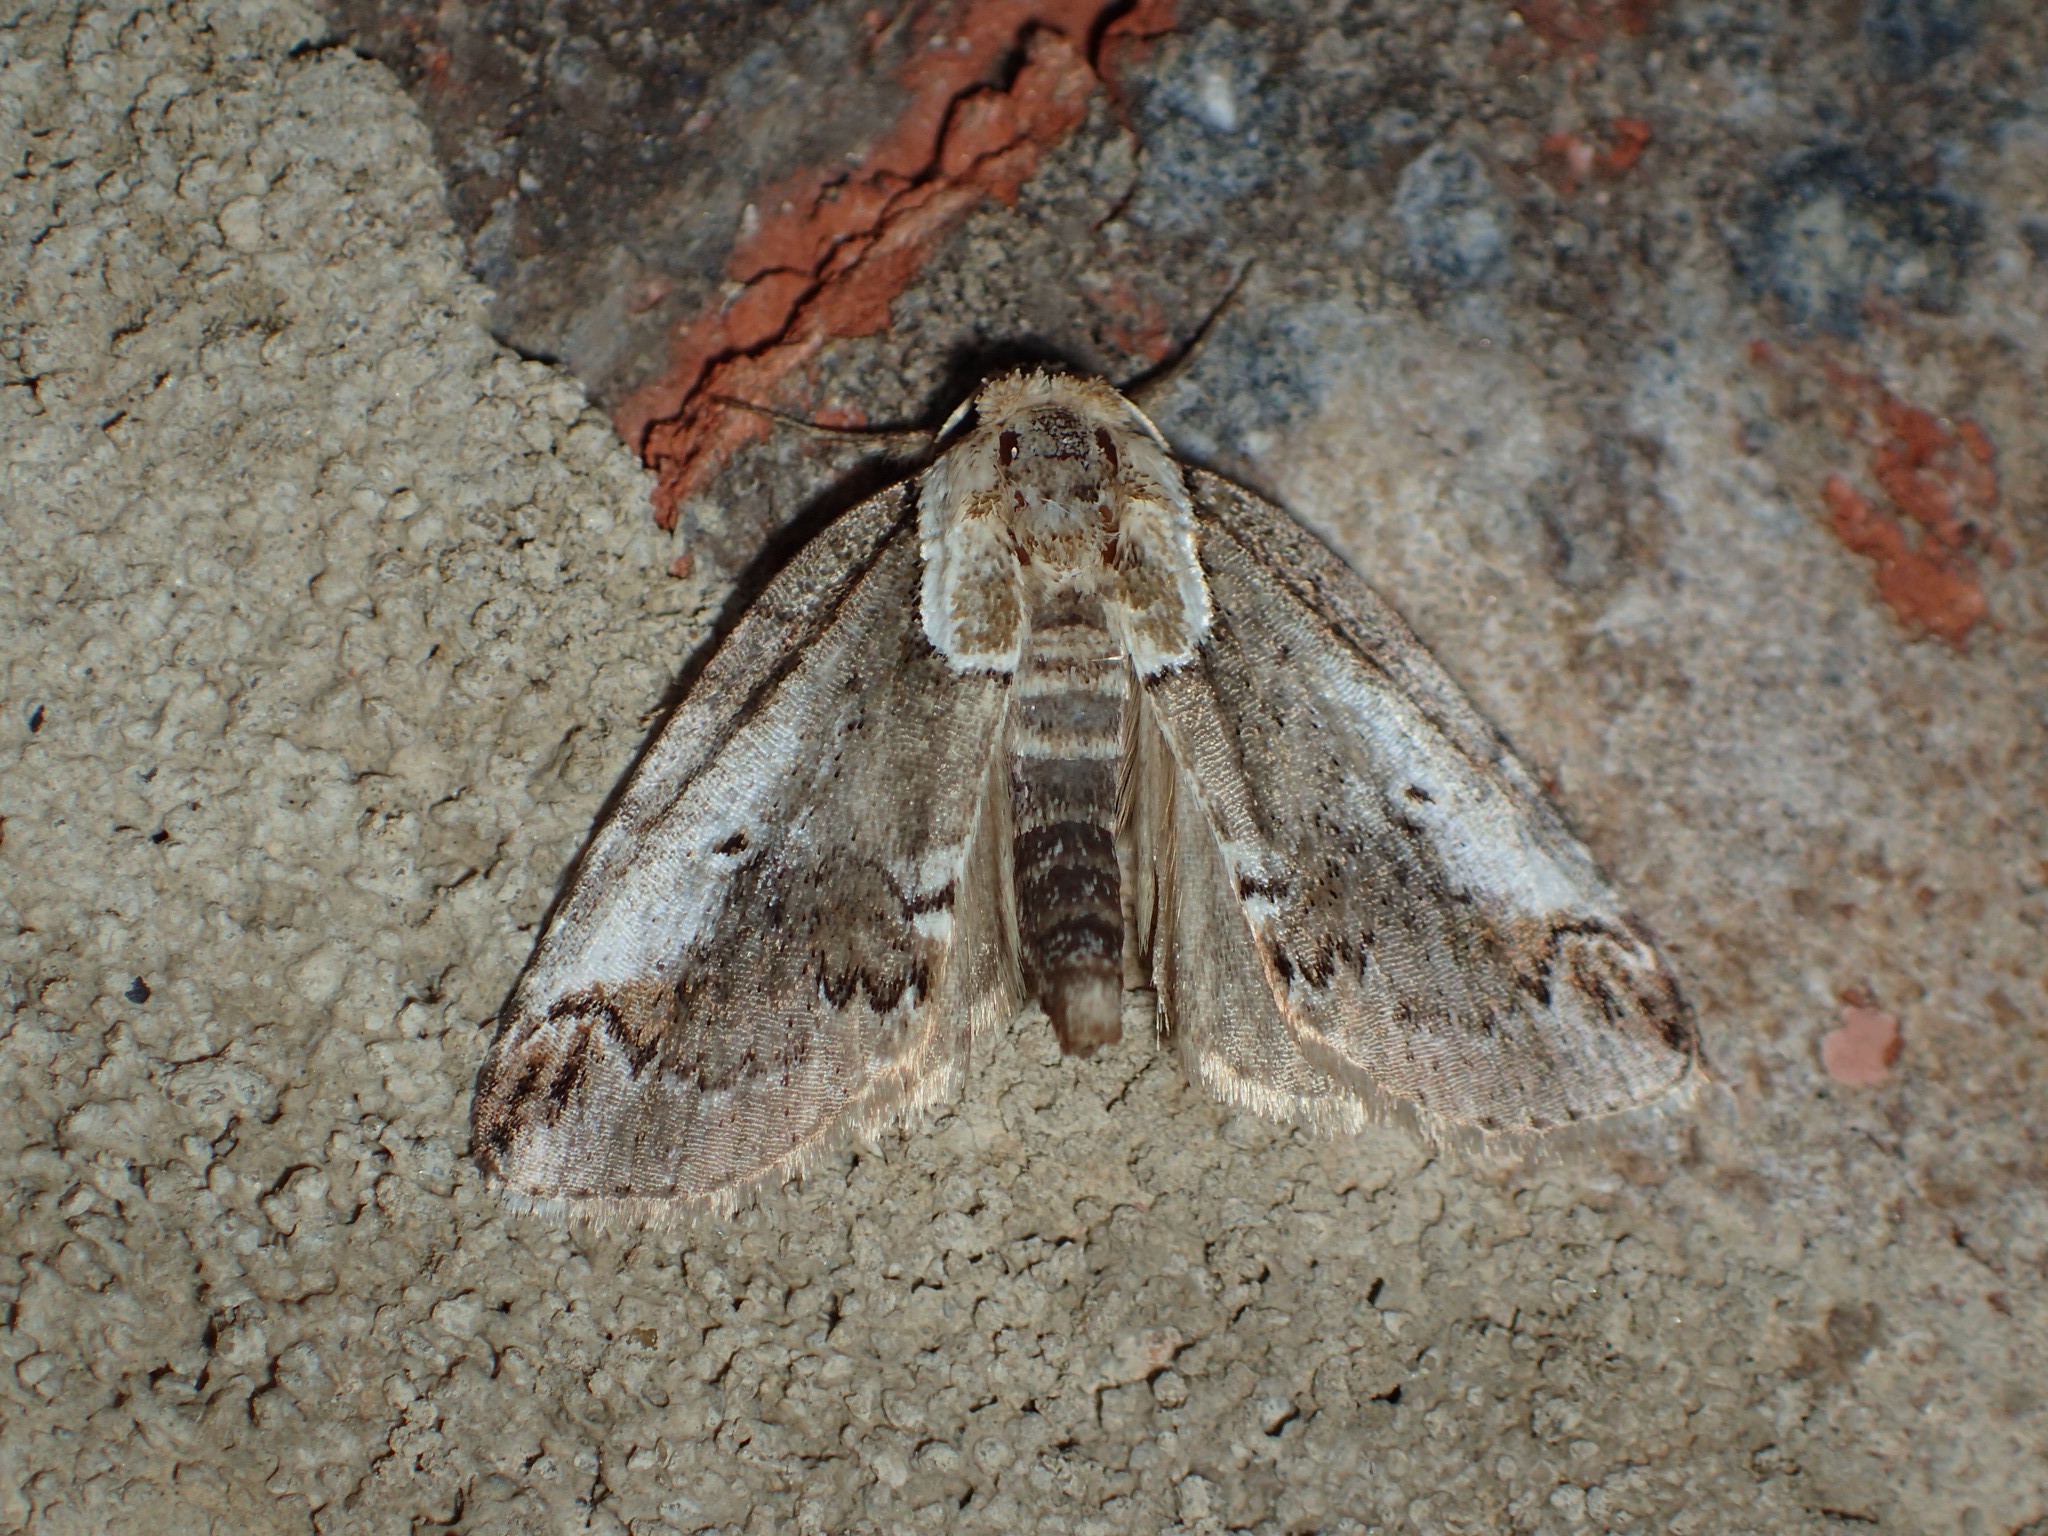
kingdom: Animalia
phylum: Arthropoda
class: Insecta
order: Lepidoptera
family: Nolidae
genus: Baileya
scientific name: Baileya ophthalmica
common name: Eyed baileya moth
